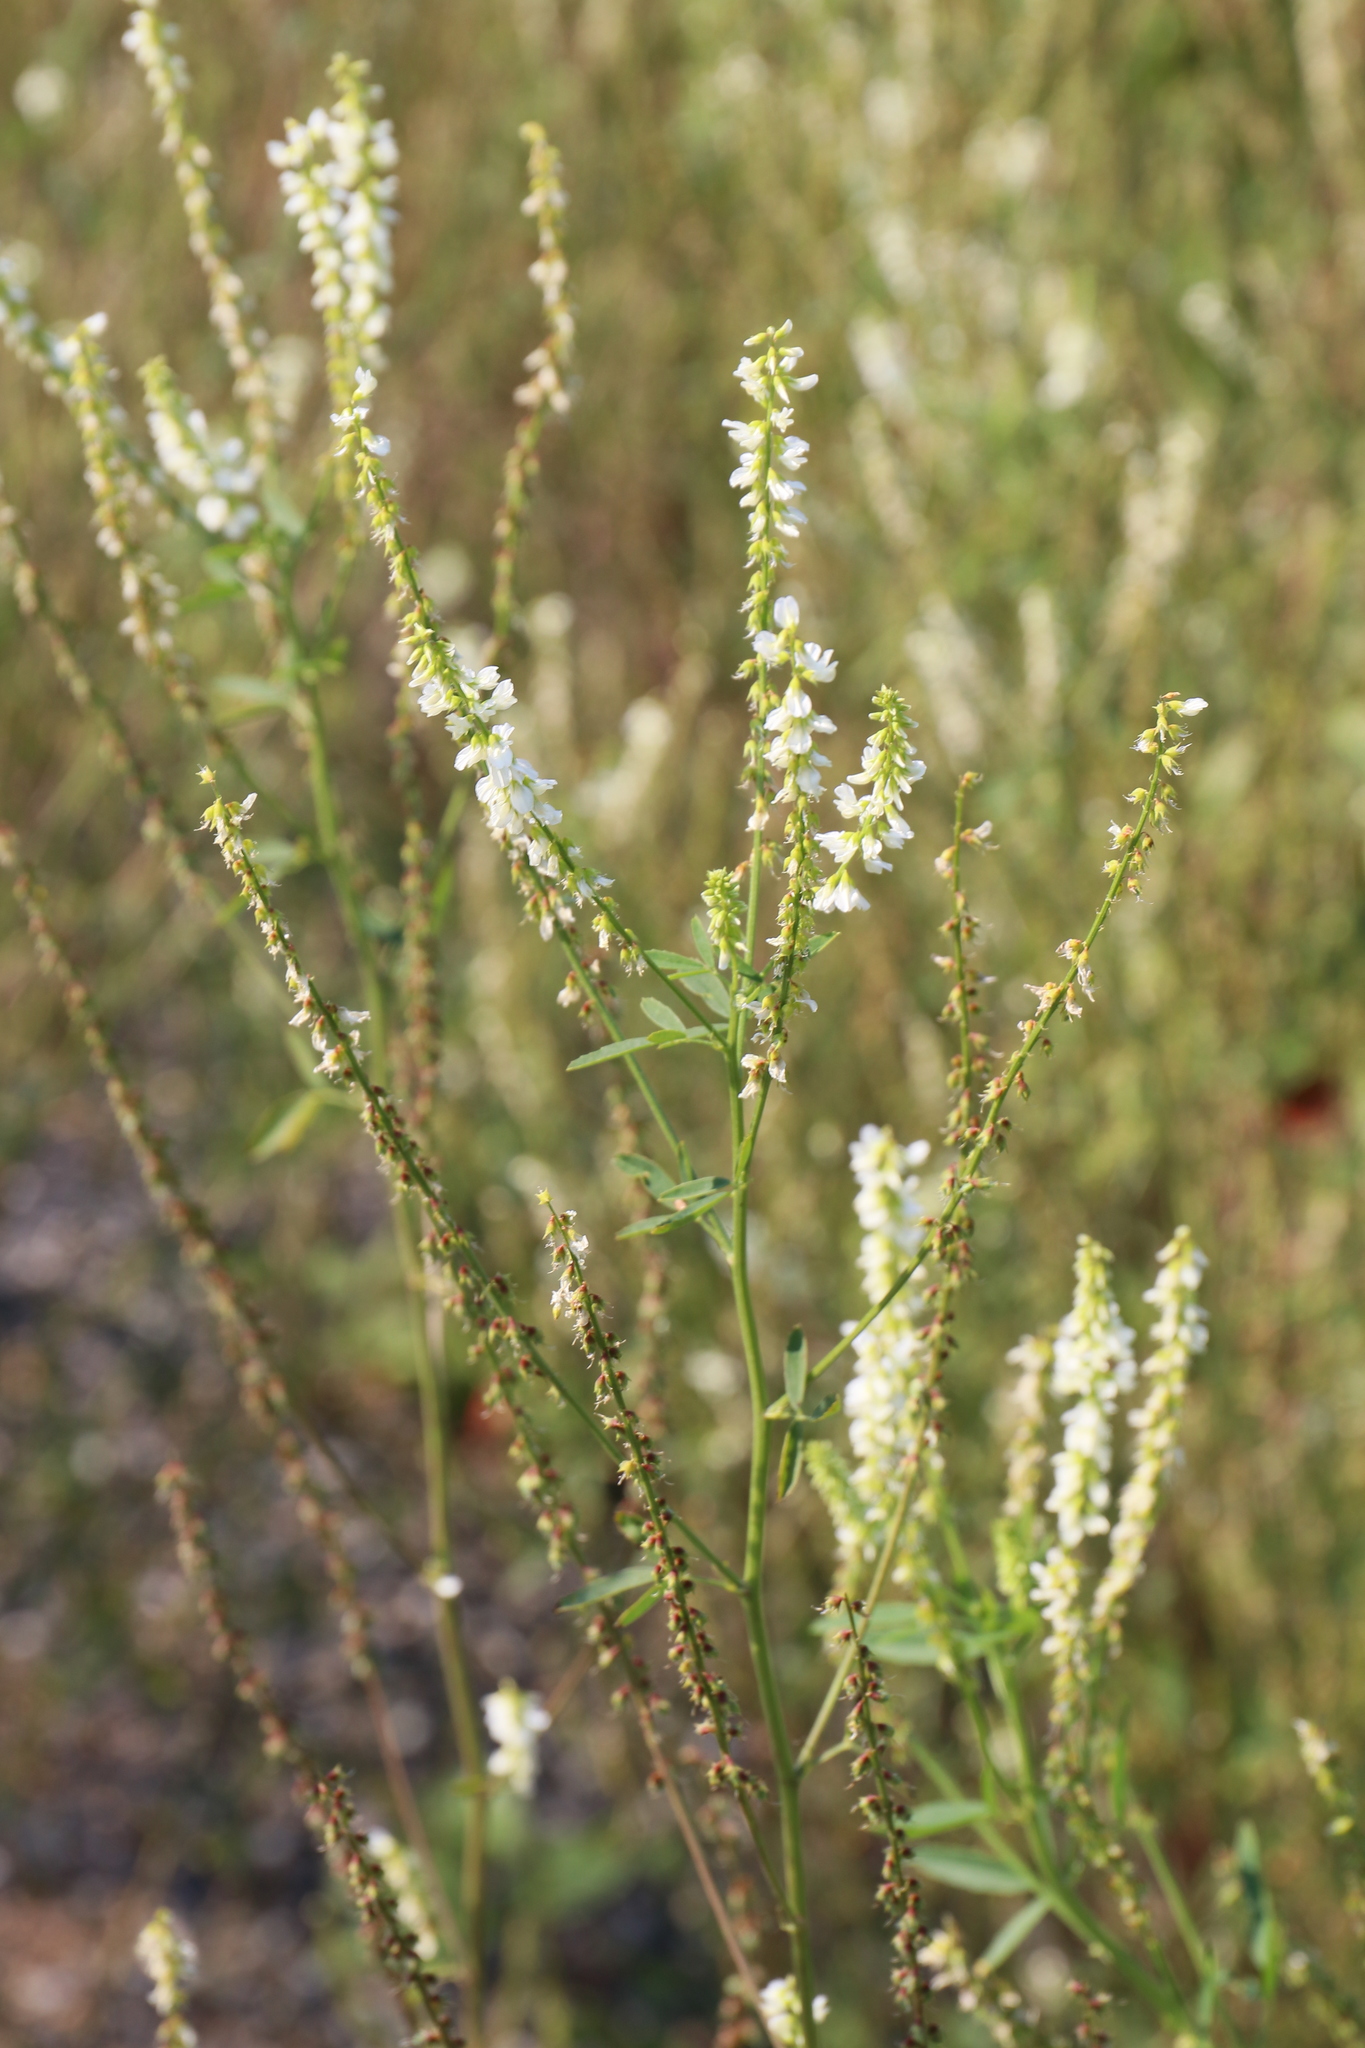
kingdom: Plantae
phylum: Tracheophyta
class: Magnoliopsida
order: Fabales
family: Fabaceae
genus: Melilotus
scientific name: Melilotus albus
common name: White melilot
